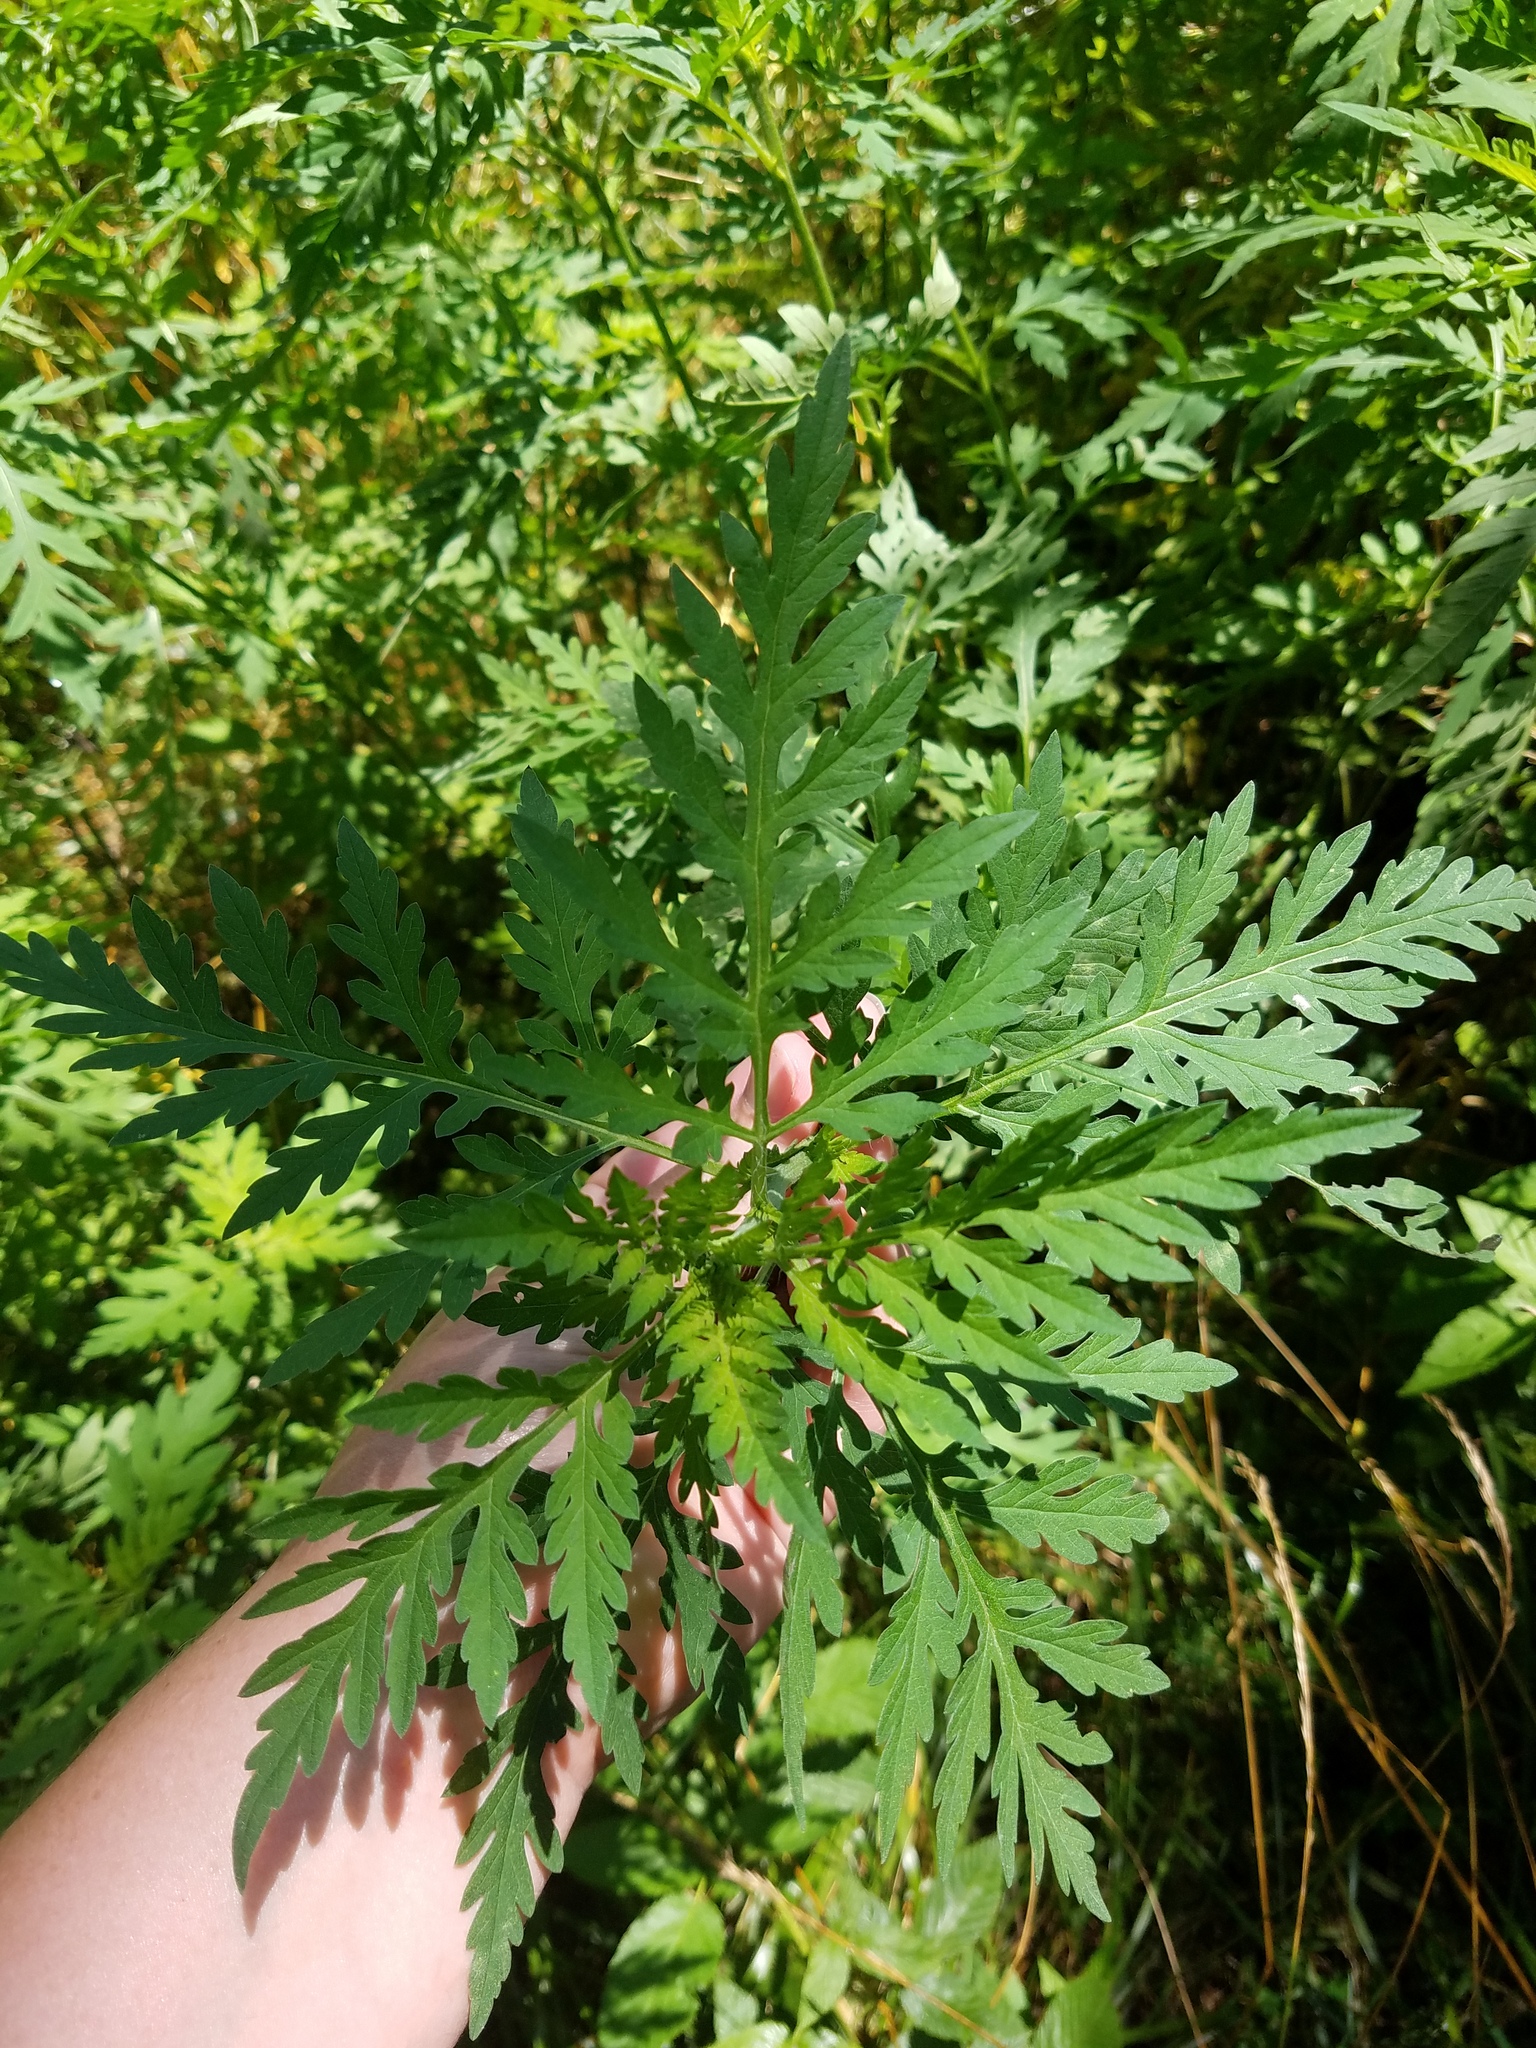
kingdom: Plantae
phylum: Tracheophyta
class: Magnoliopsida
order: Asterales
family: Asteraceae
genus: Ambrosia
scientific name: Ambrosia artemisiifolia
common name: Annual ragweed
